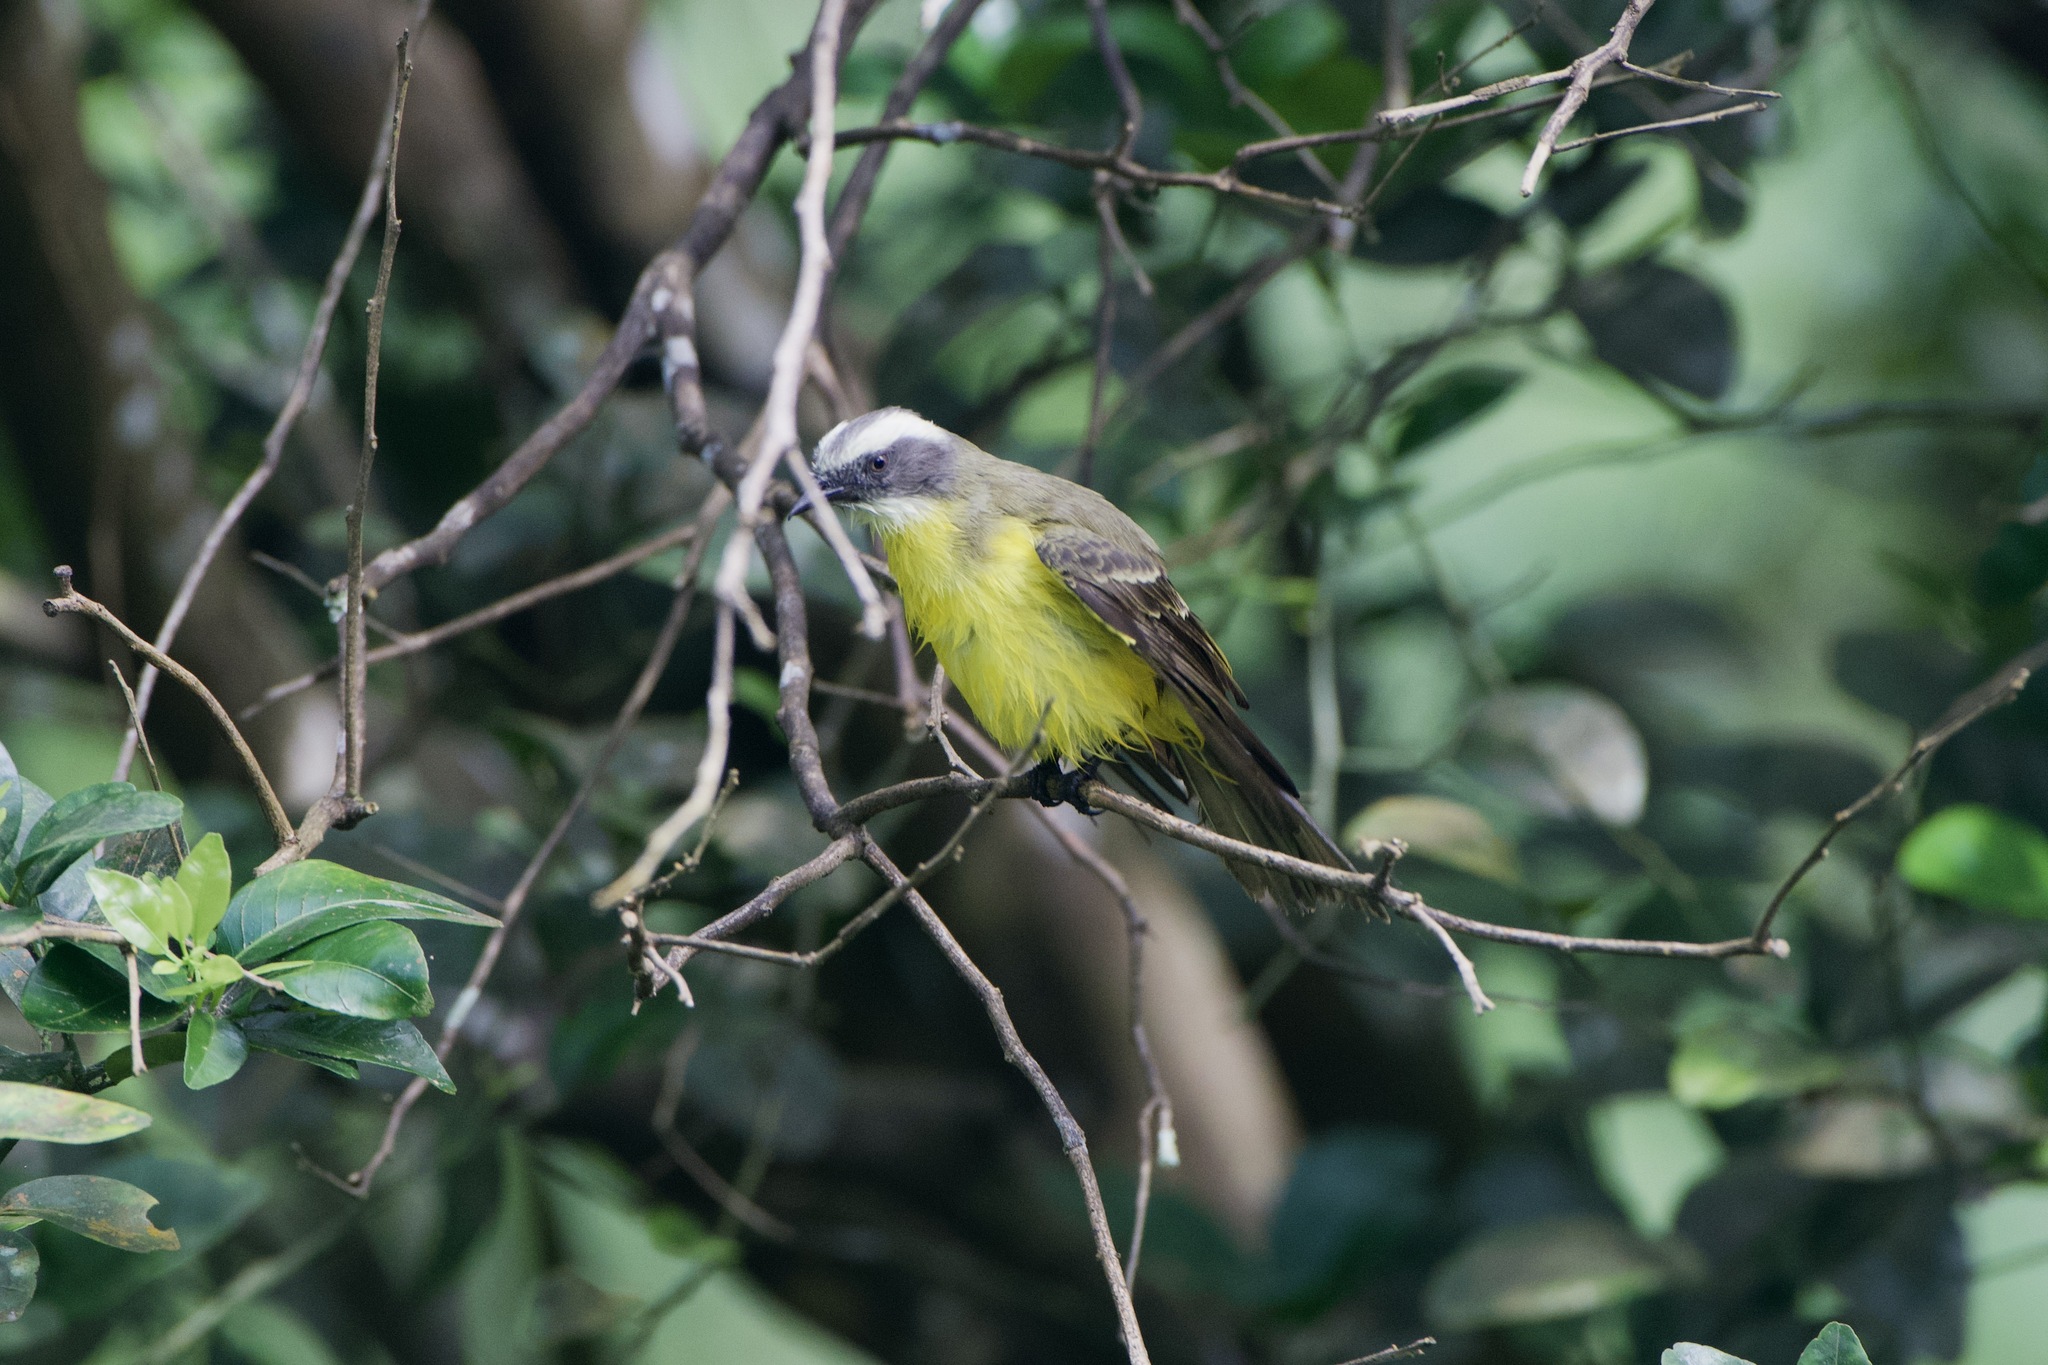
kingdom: Animalia
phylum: Chordata
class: Aves
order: Passeriformes
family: Tyrannidae
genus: Myiozetetes
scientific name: Myiozetetes similis
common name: Social flycatcher
